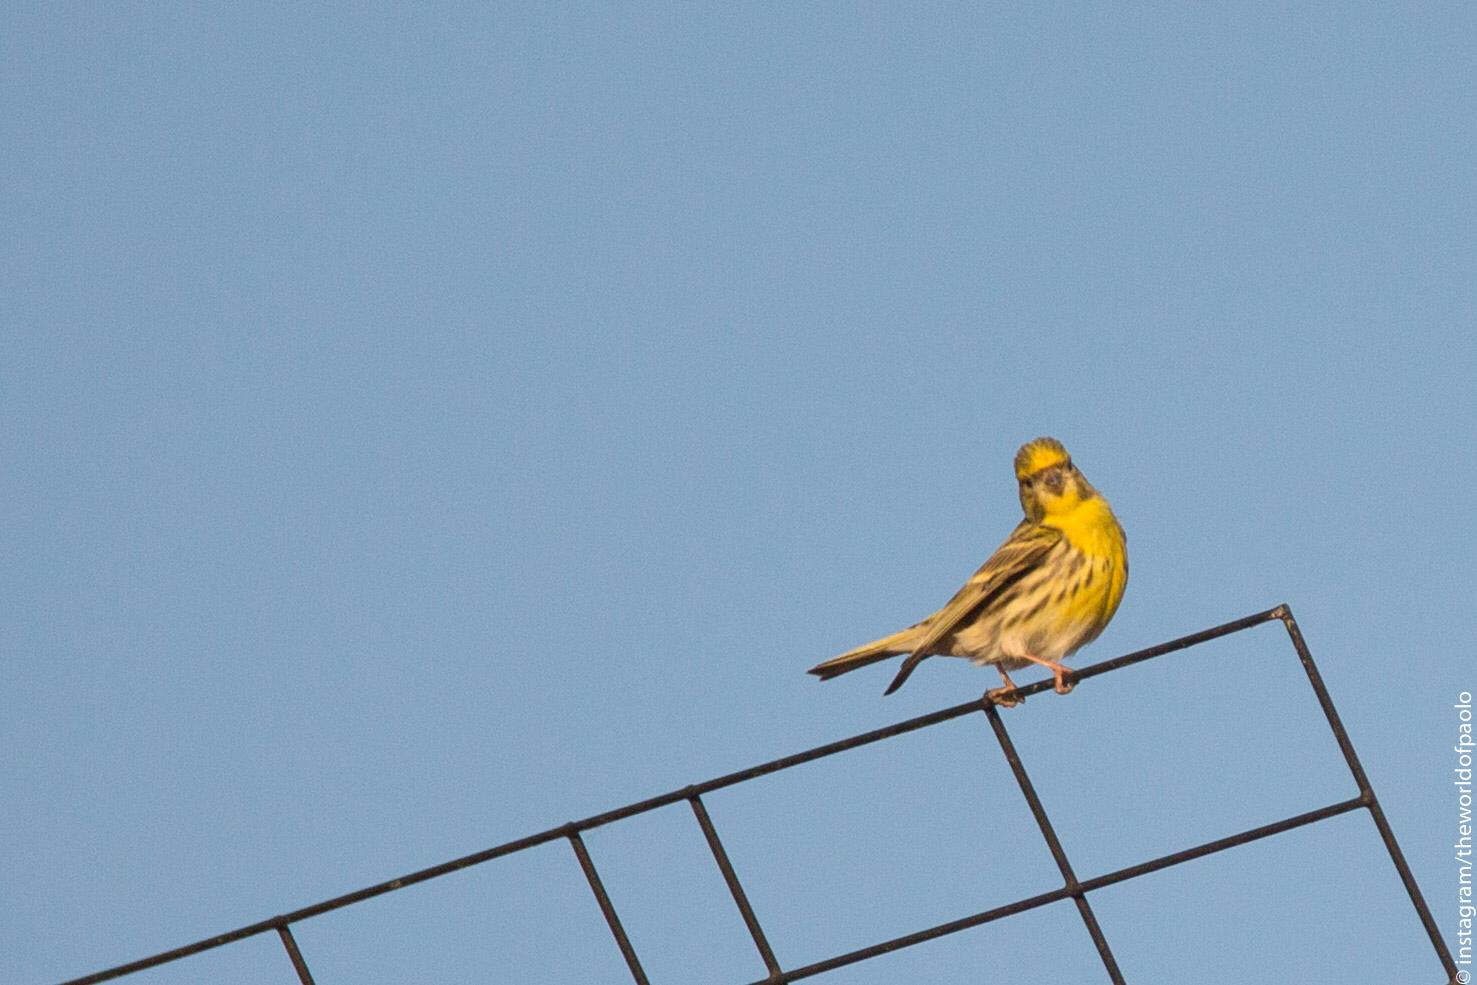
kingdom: Animalia
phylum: Chordata
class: Aves
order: Passeriformes
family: Fringillidae
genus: Serinus
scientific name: Serinus serinus
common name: European serin
